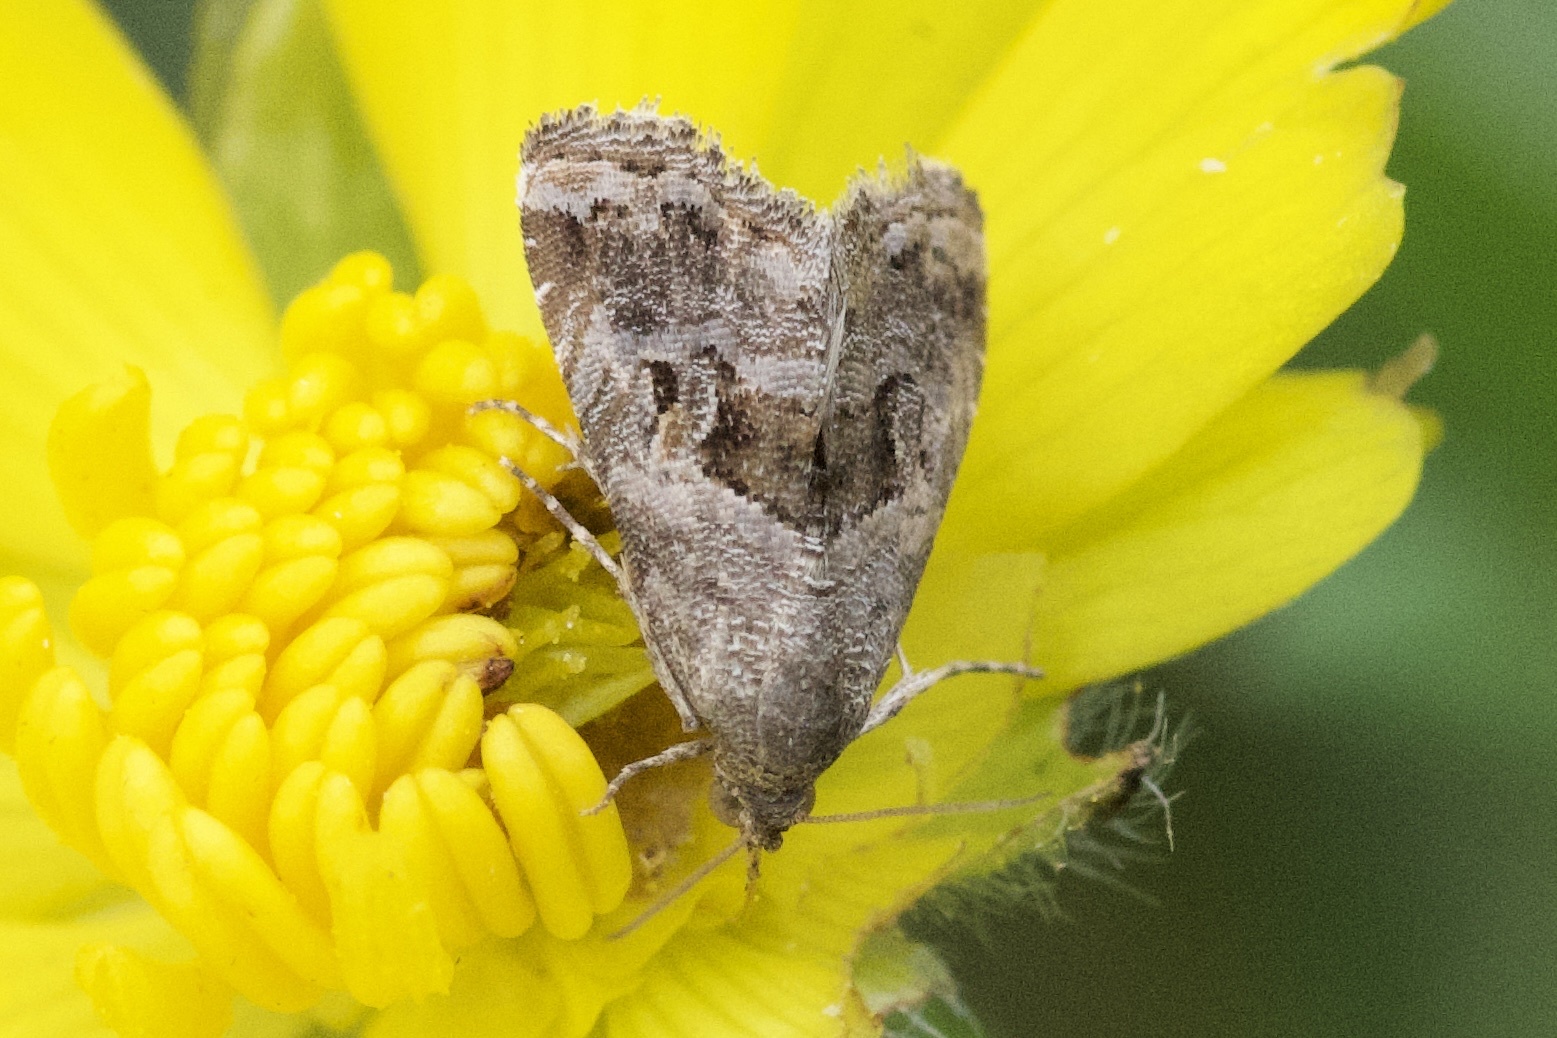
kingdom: Animalia
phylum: Arthropoda
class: Insecta
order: Lepidoptera
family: Noctuidae
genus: Tripudia
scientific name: Tripudia quadrifera
